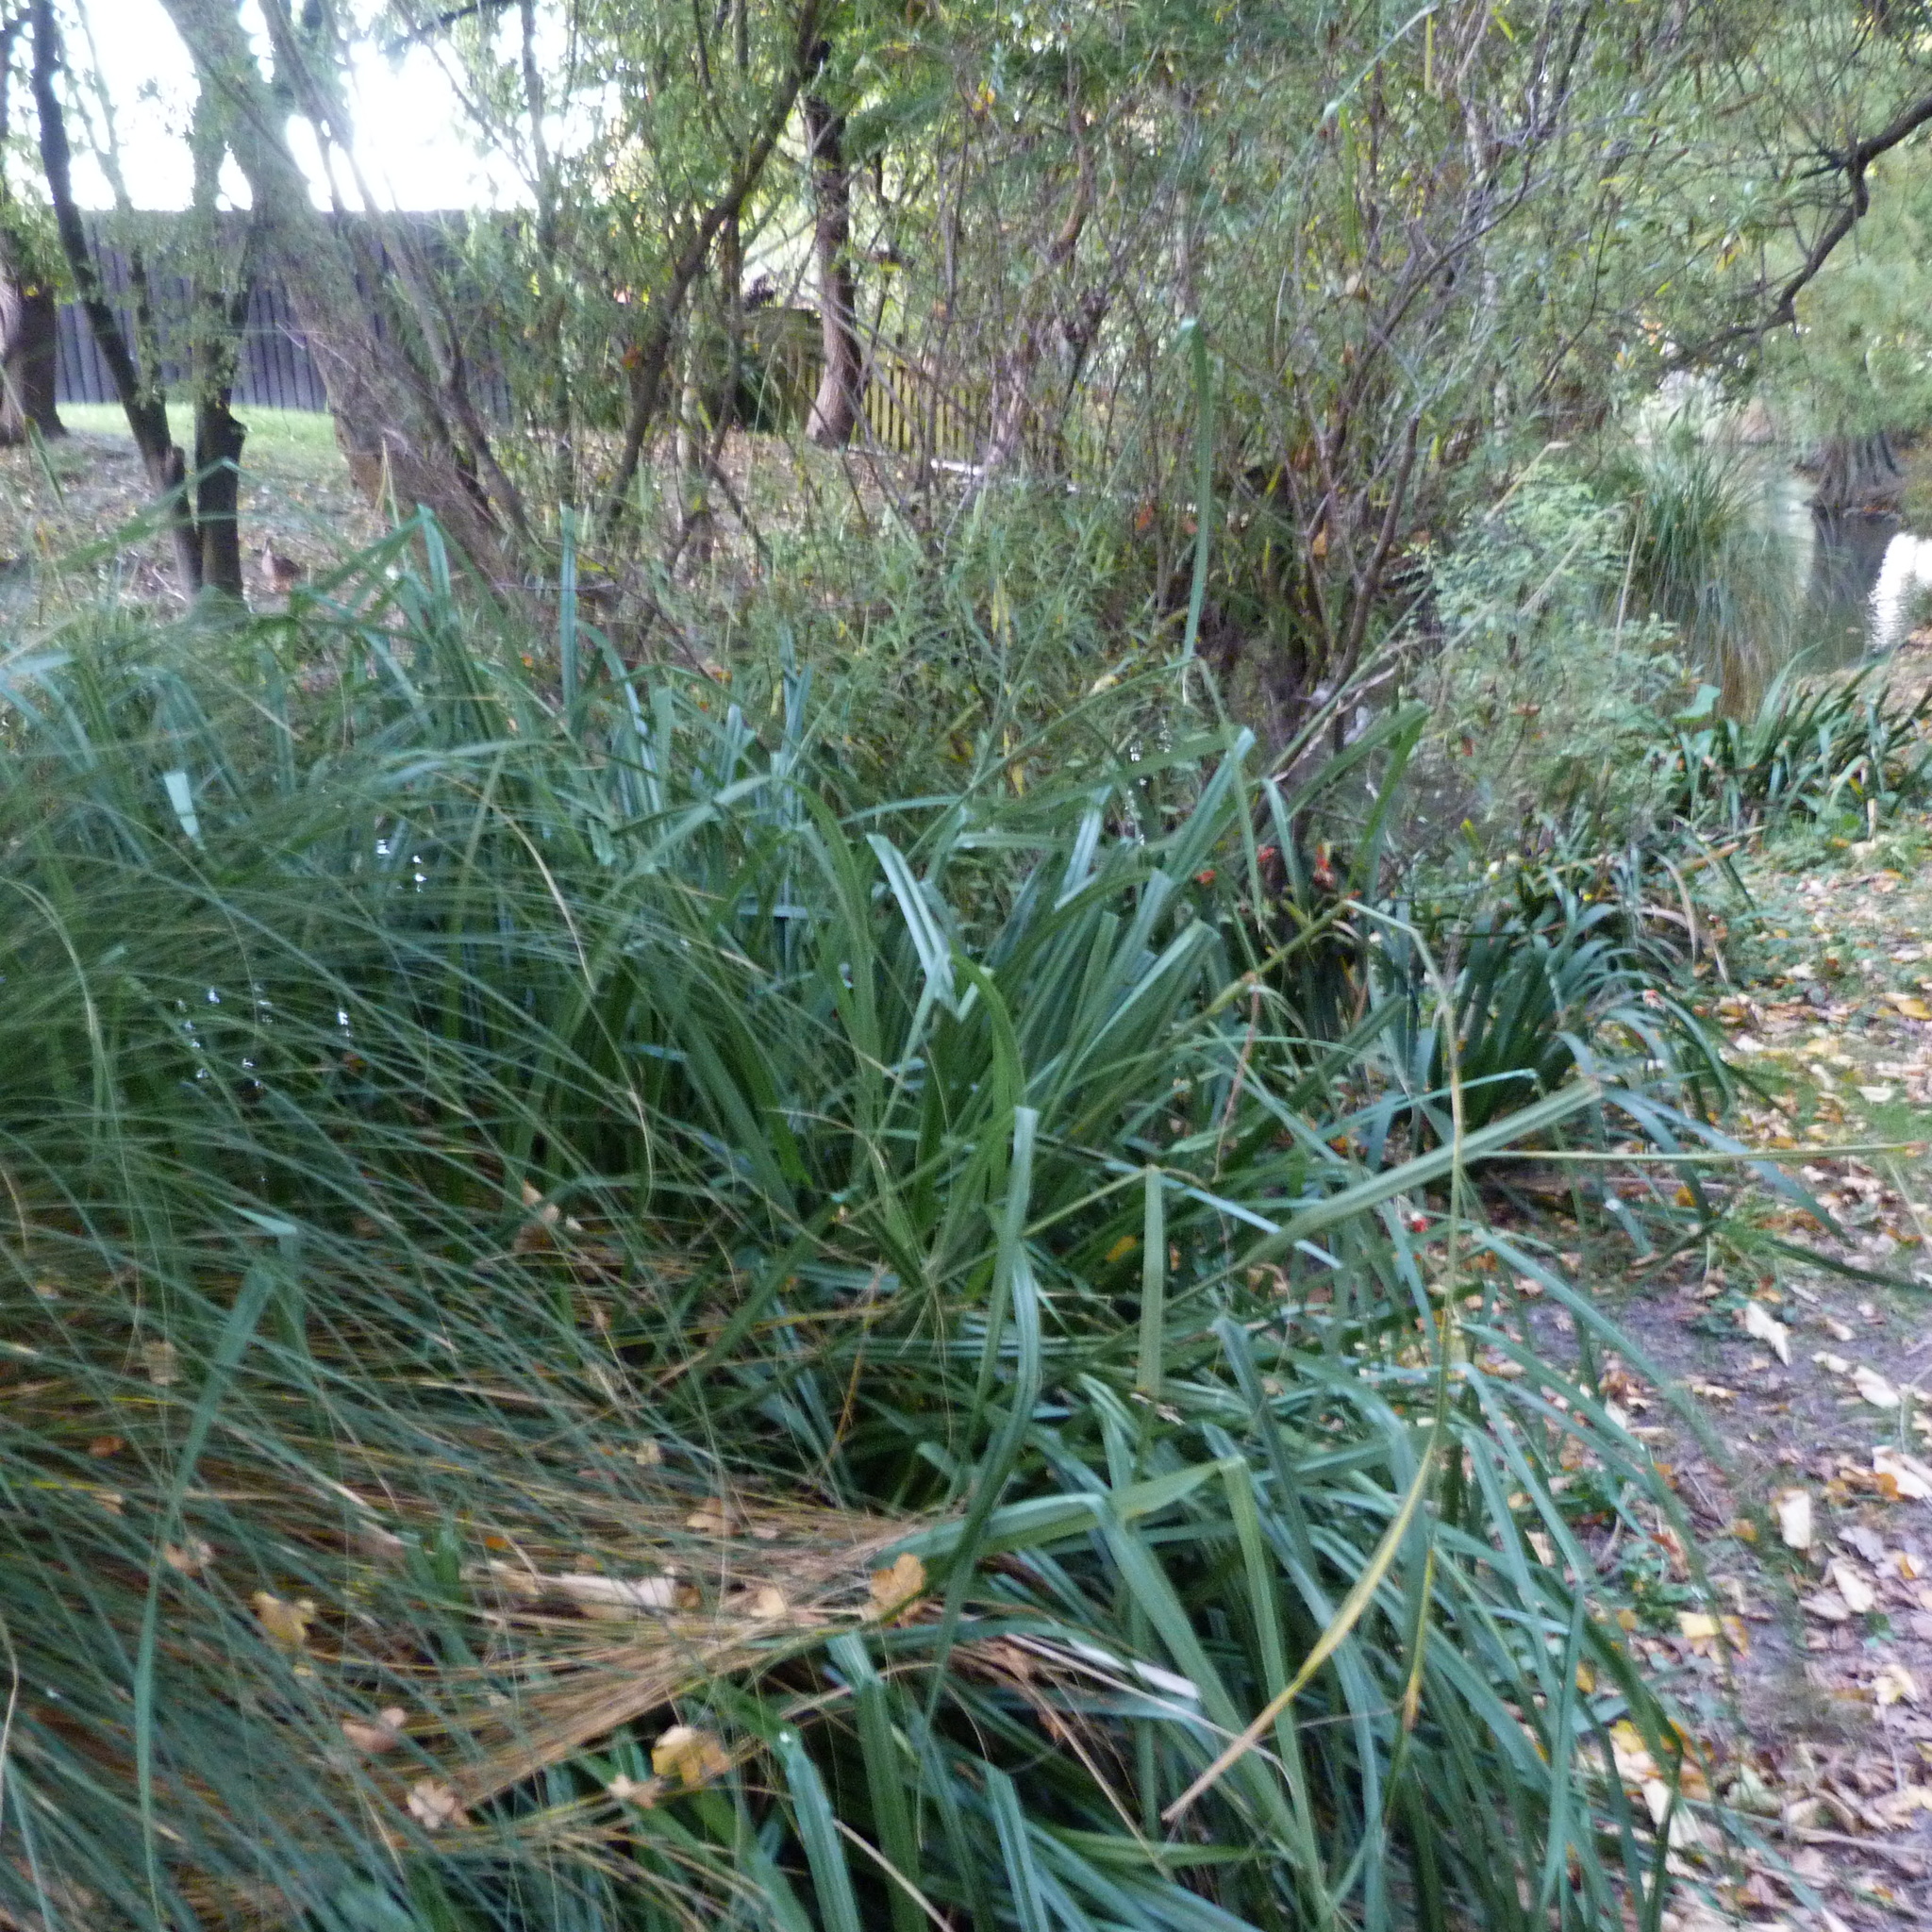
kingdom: Plantae
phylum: Tracheophyta
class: Liliopsida
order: Poales
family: Cyperaceae
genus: Carex
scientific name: Carex pendula
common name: Pendulous sedge
